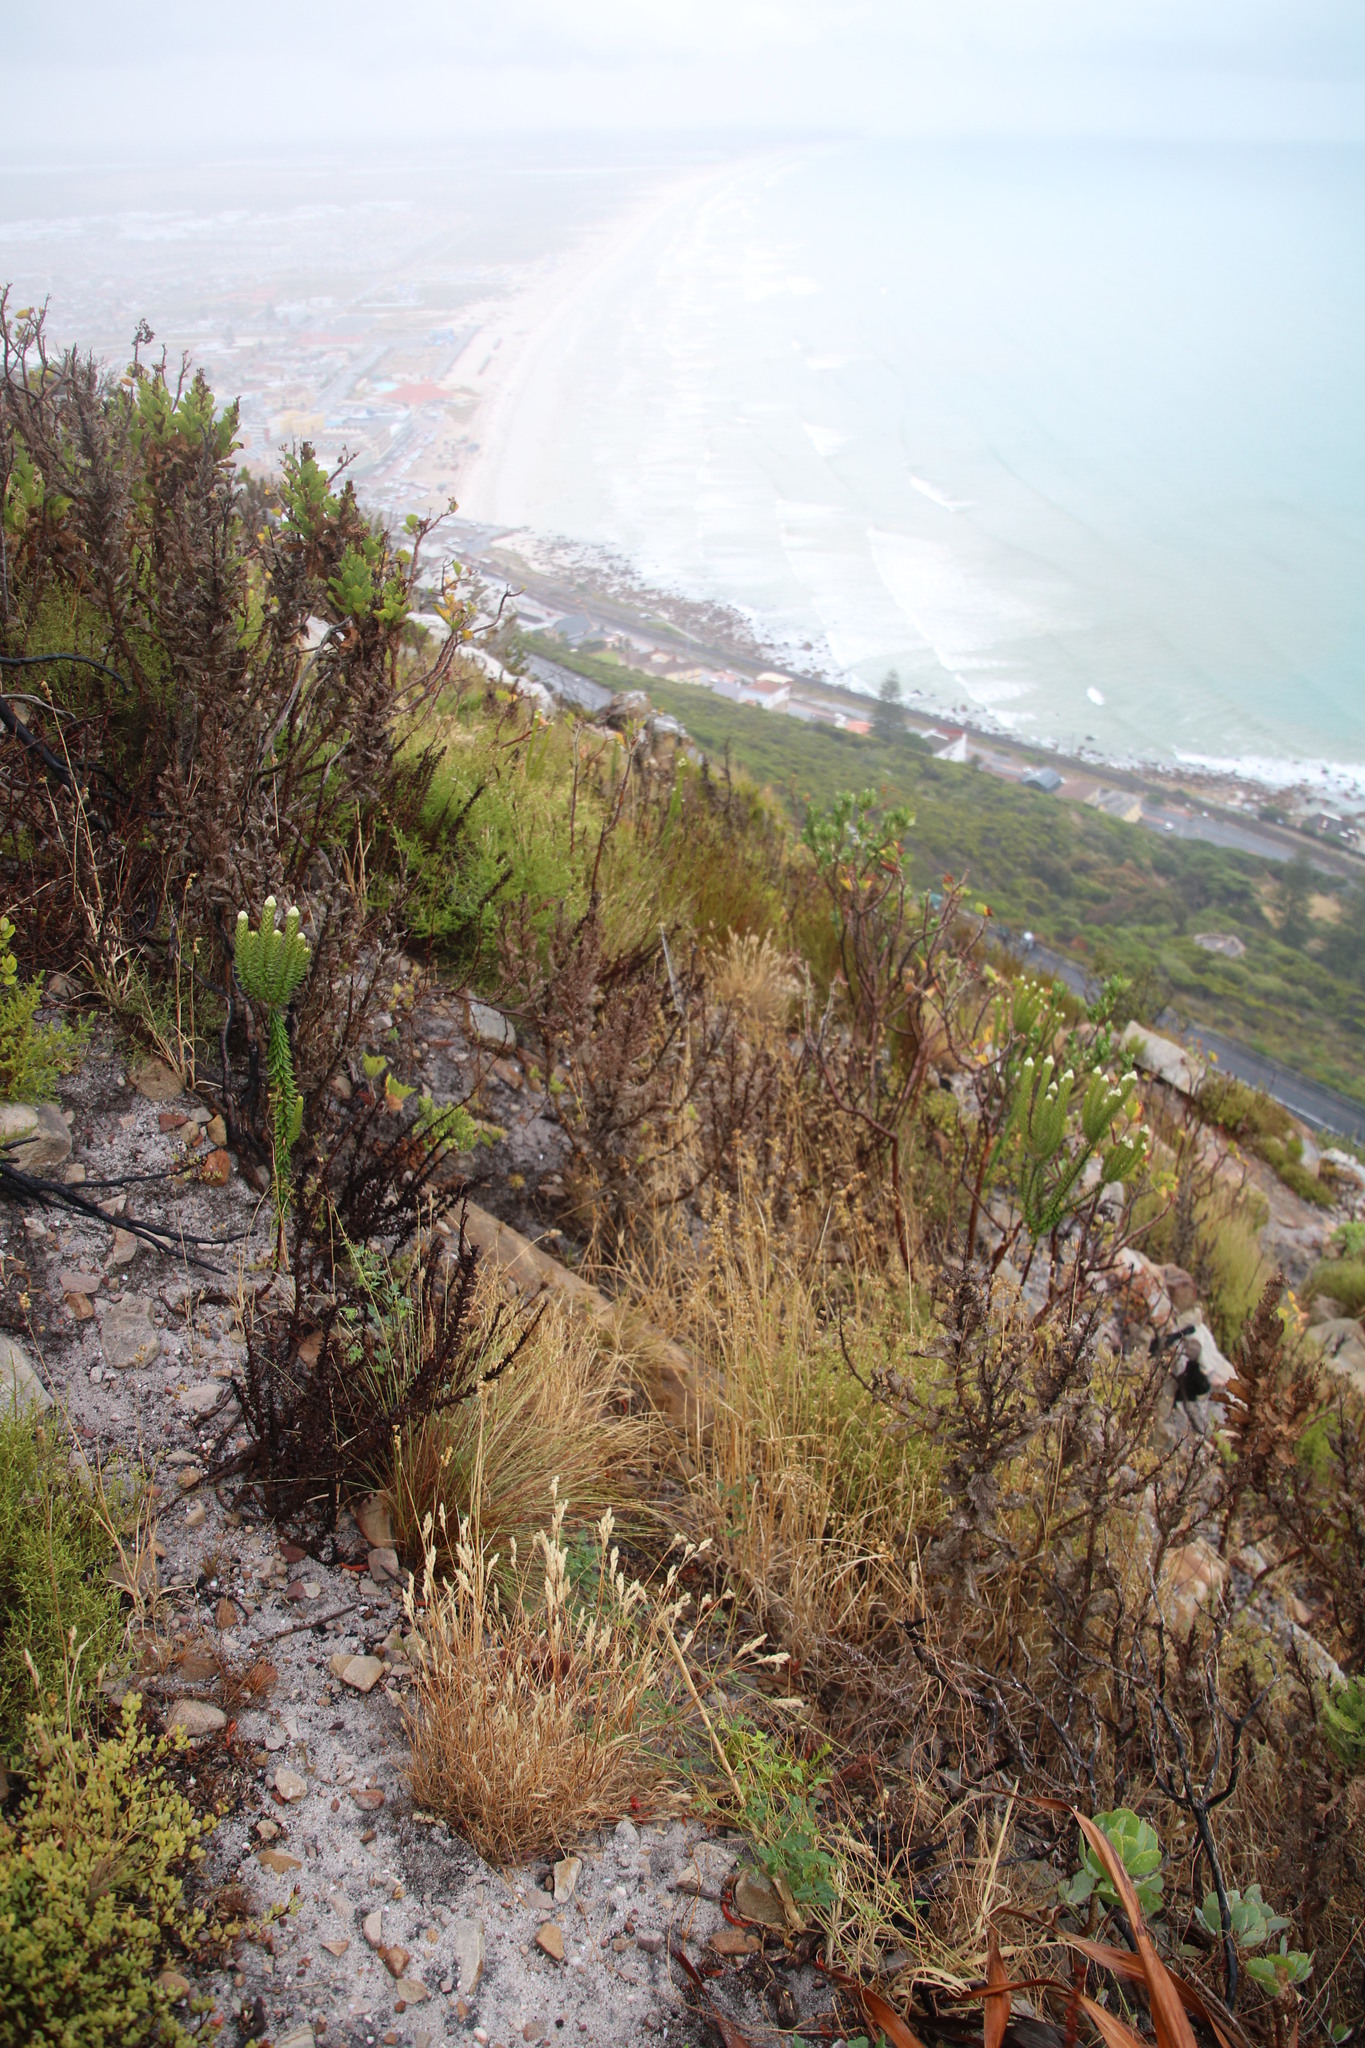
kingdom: Plantae
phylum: Tracheophyta
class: Magnoliopsida
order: Rosales
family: Rhamnaceae
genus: Phylica
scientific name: Phylica strigosa
